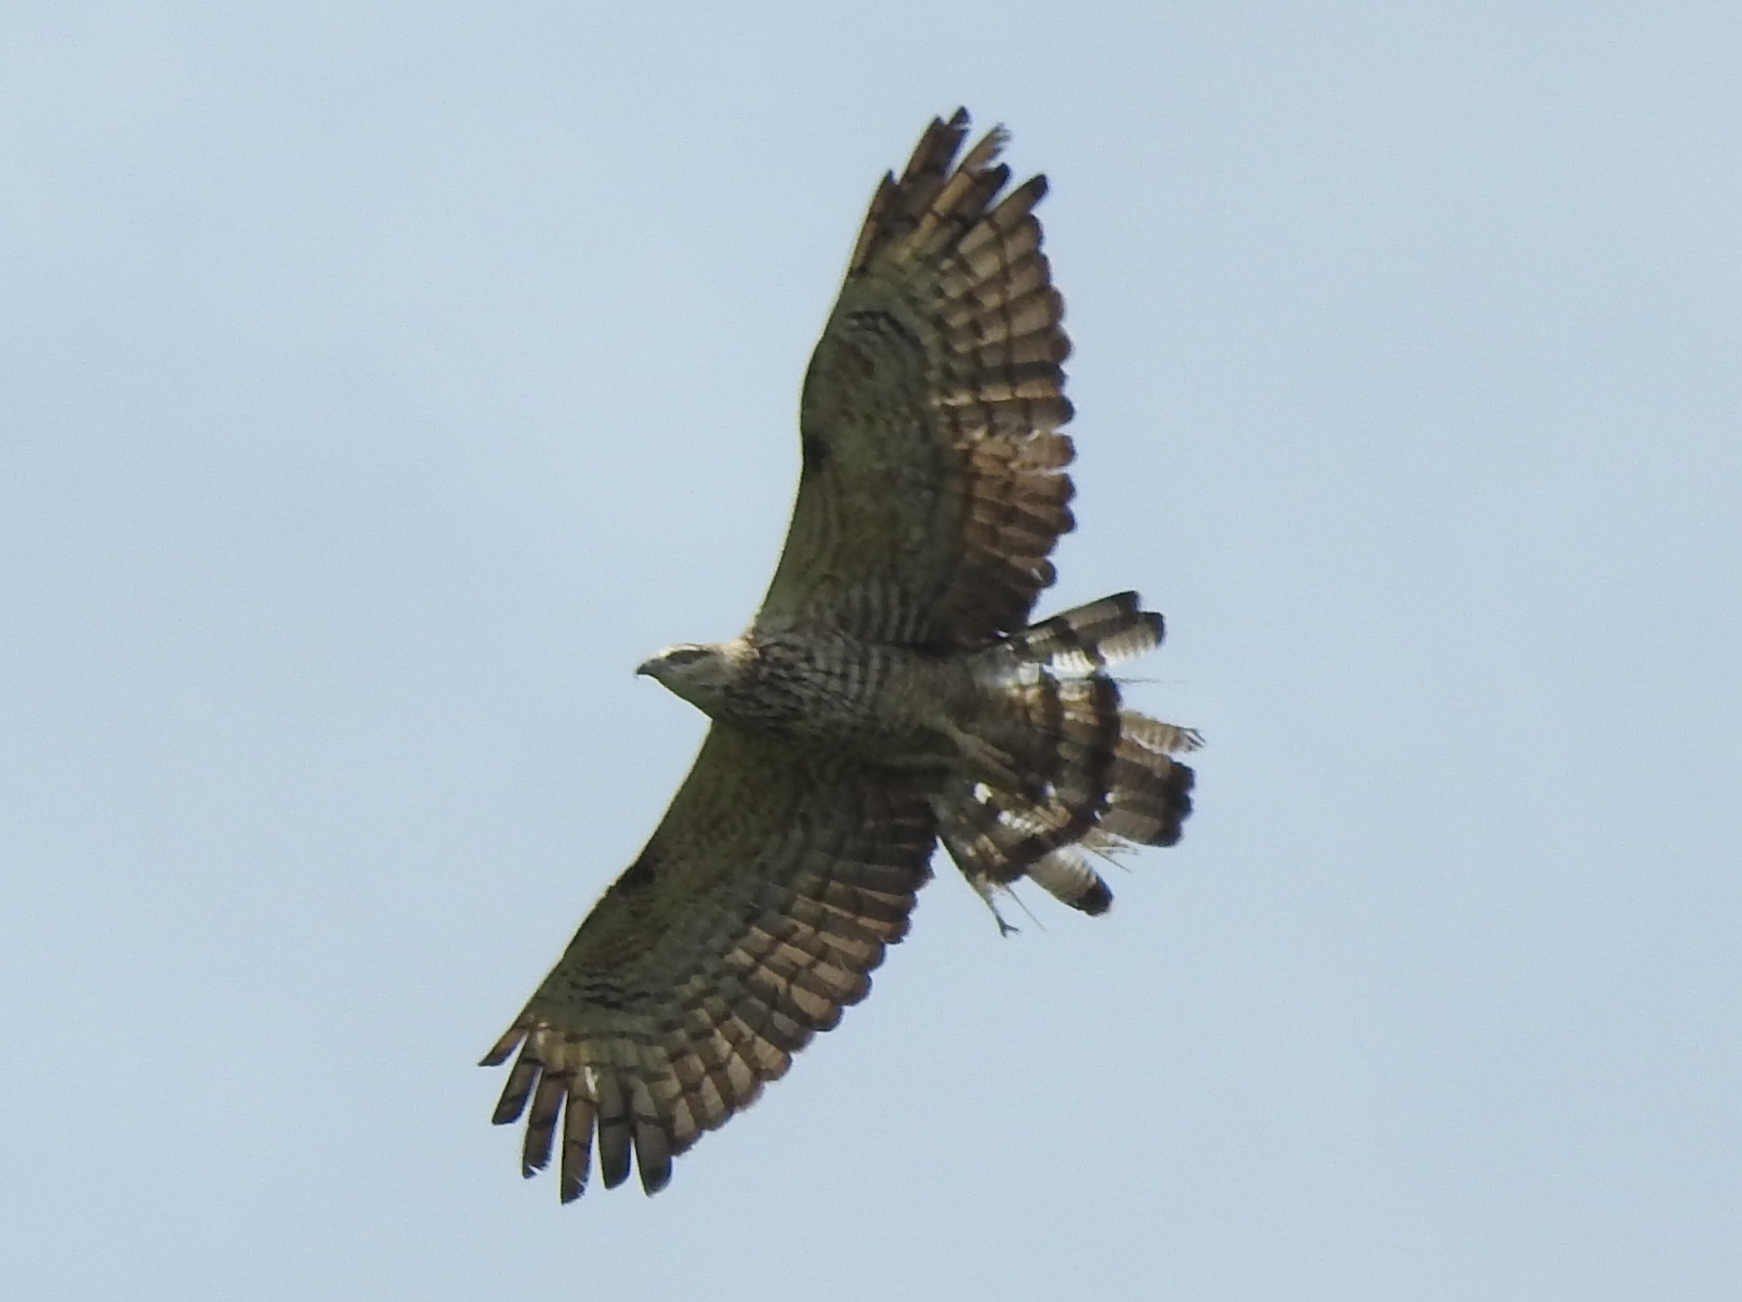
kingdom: Animalia
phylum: Chordata
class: Aves
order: Accipitriformes
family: Accipitridae
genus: Pernis
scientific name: Pernis ptilorhynchus
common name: Crested honey buzzard
